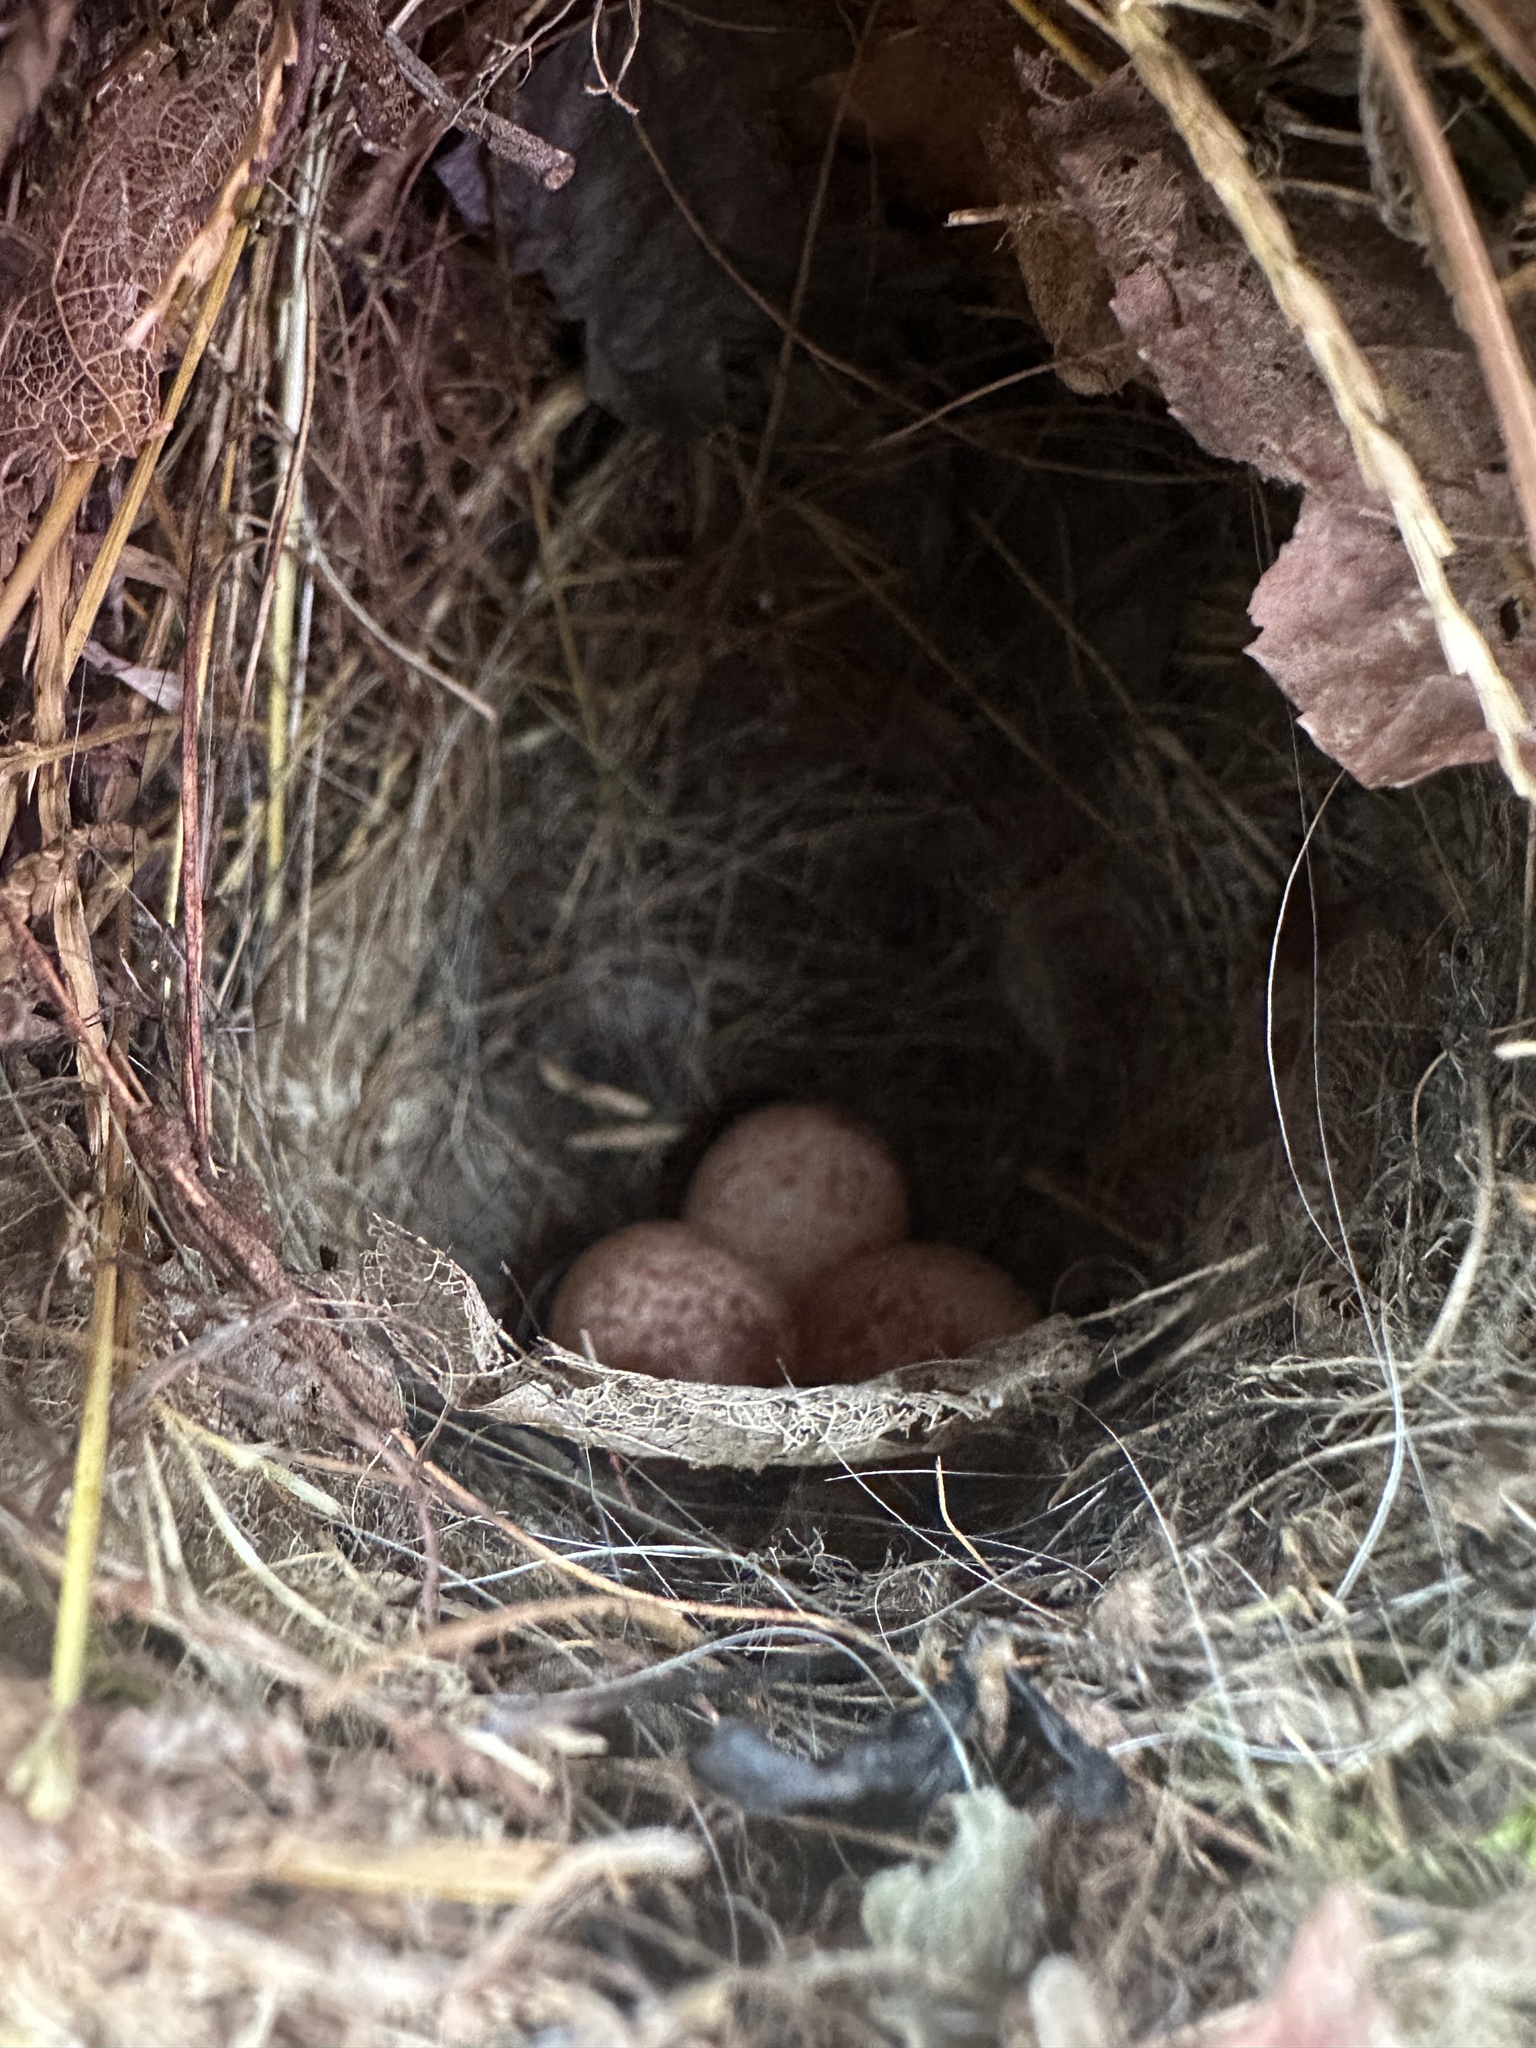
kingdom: Animalia
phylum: Chordata
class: Aves
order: Passeriformes
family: Troglodytidae
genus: Thryothorus
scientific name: Thryothorus ludovicianus
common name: Carolina wren
